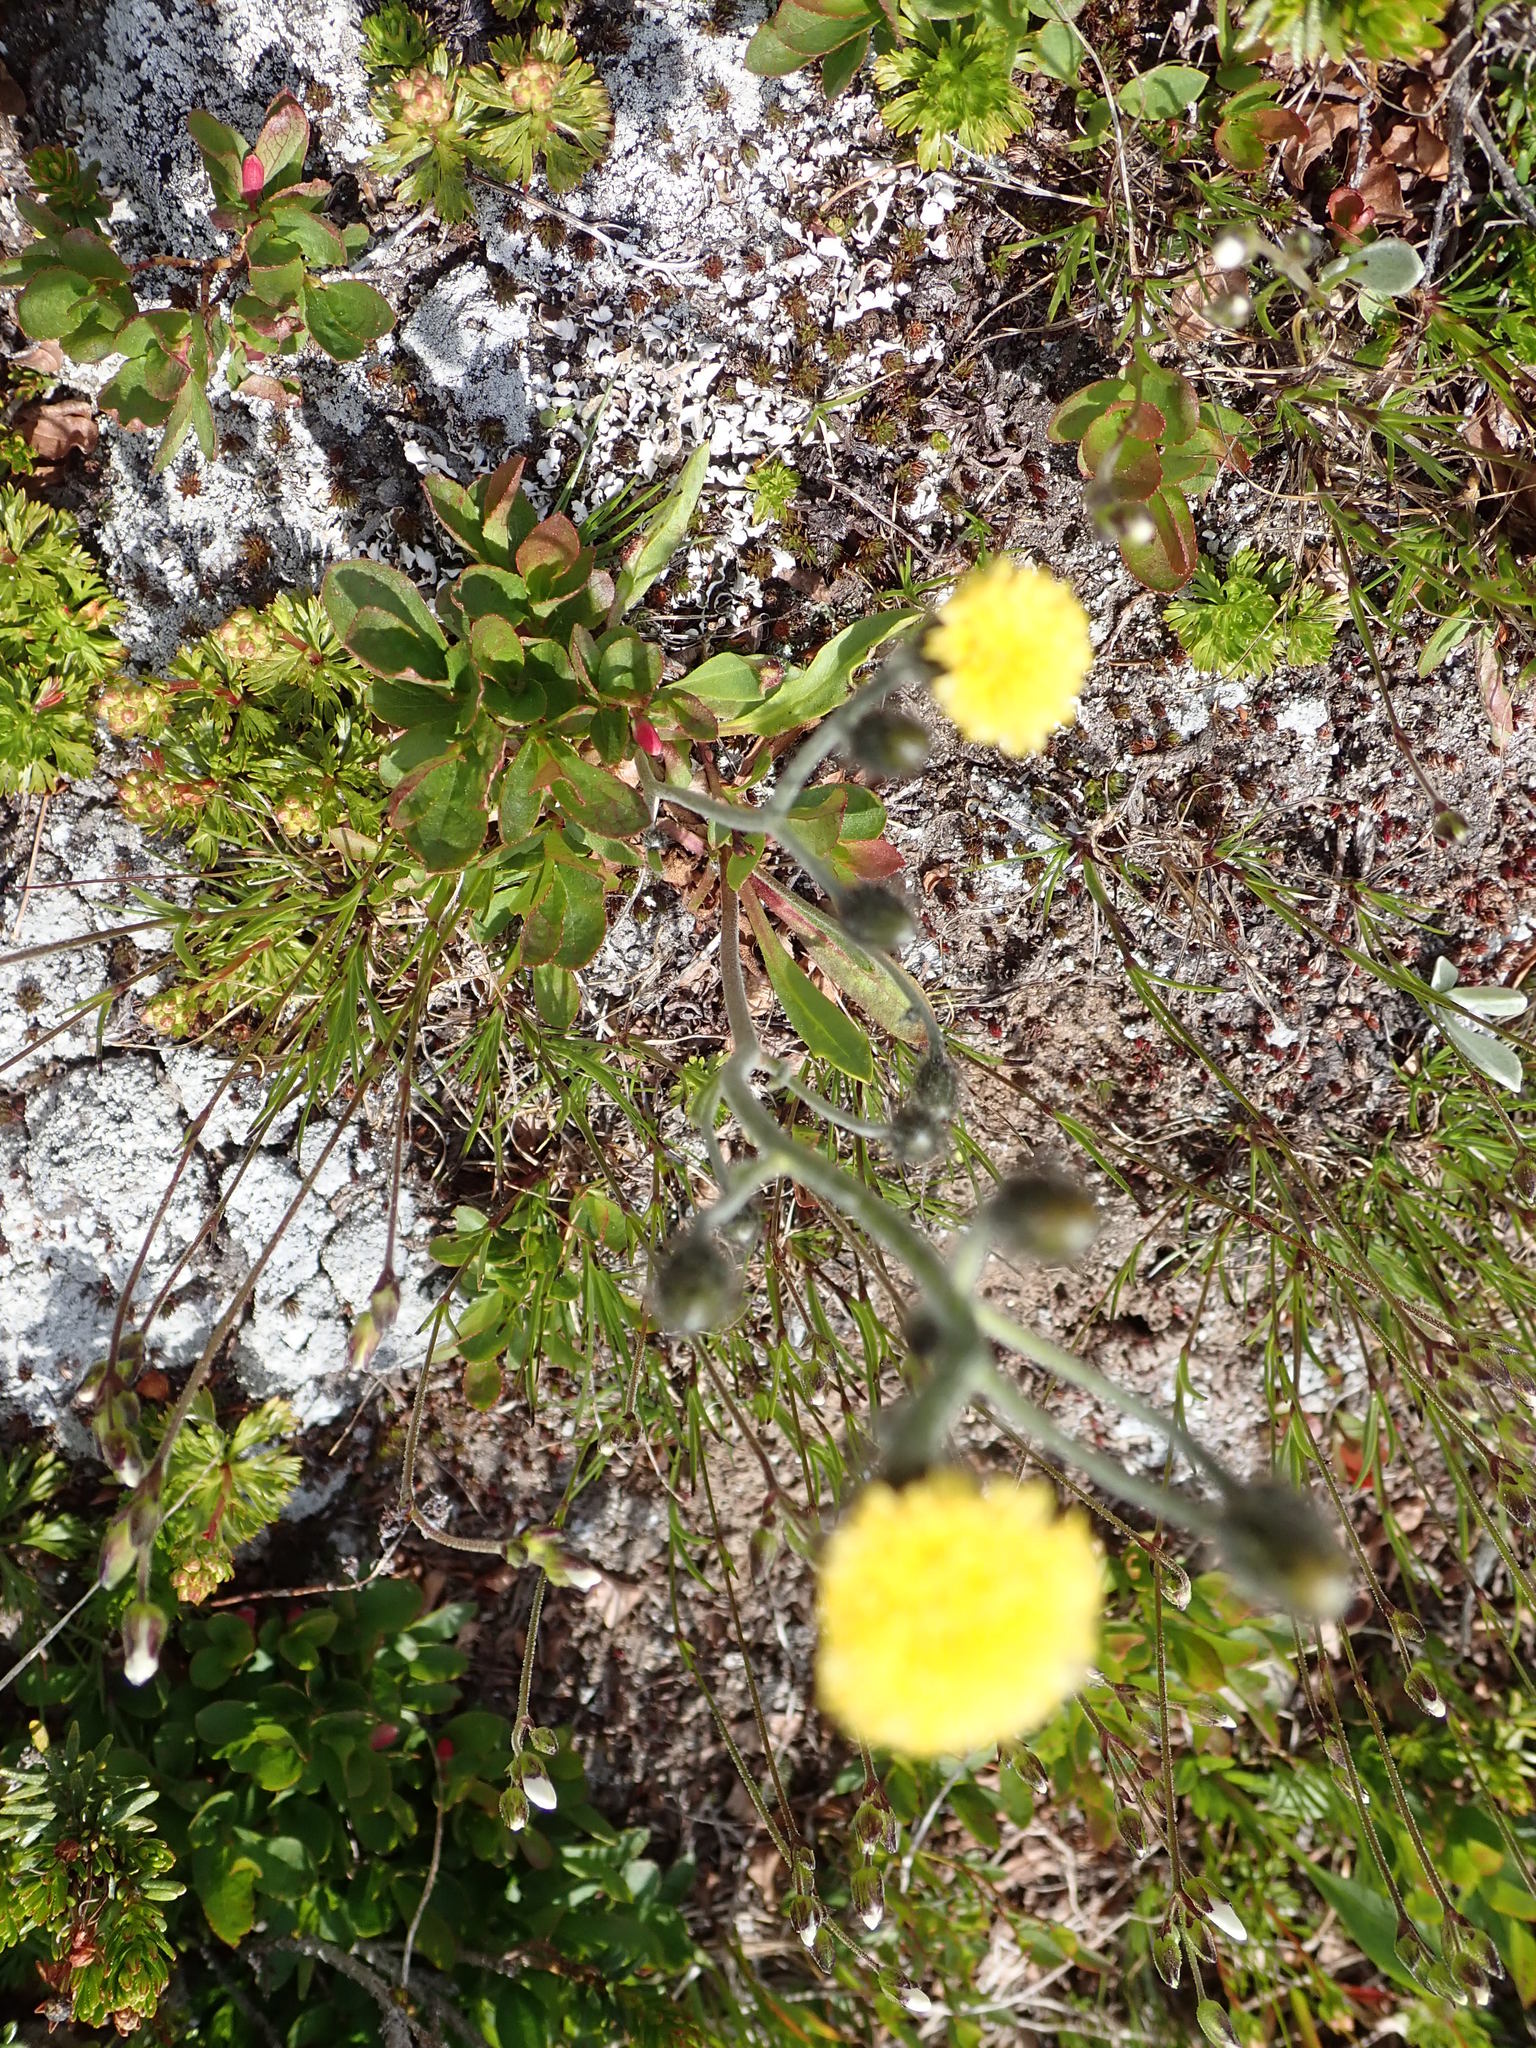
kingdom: Plantae
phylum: Tracheophyta
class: Magnoliopsida
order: Asterales
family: Asteraceae
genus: Hieracium
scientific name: Hieracium triste
